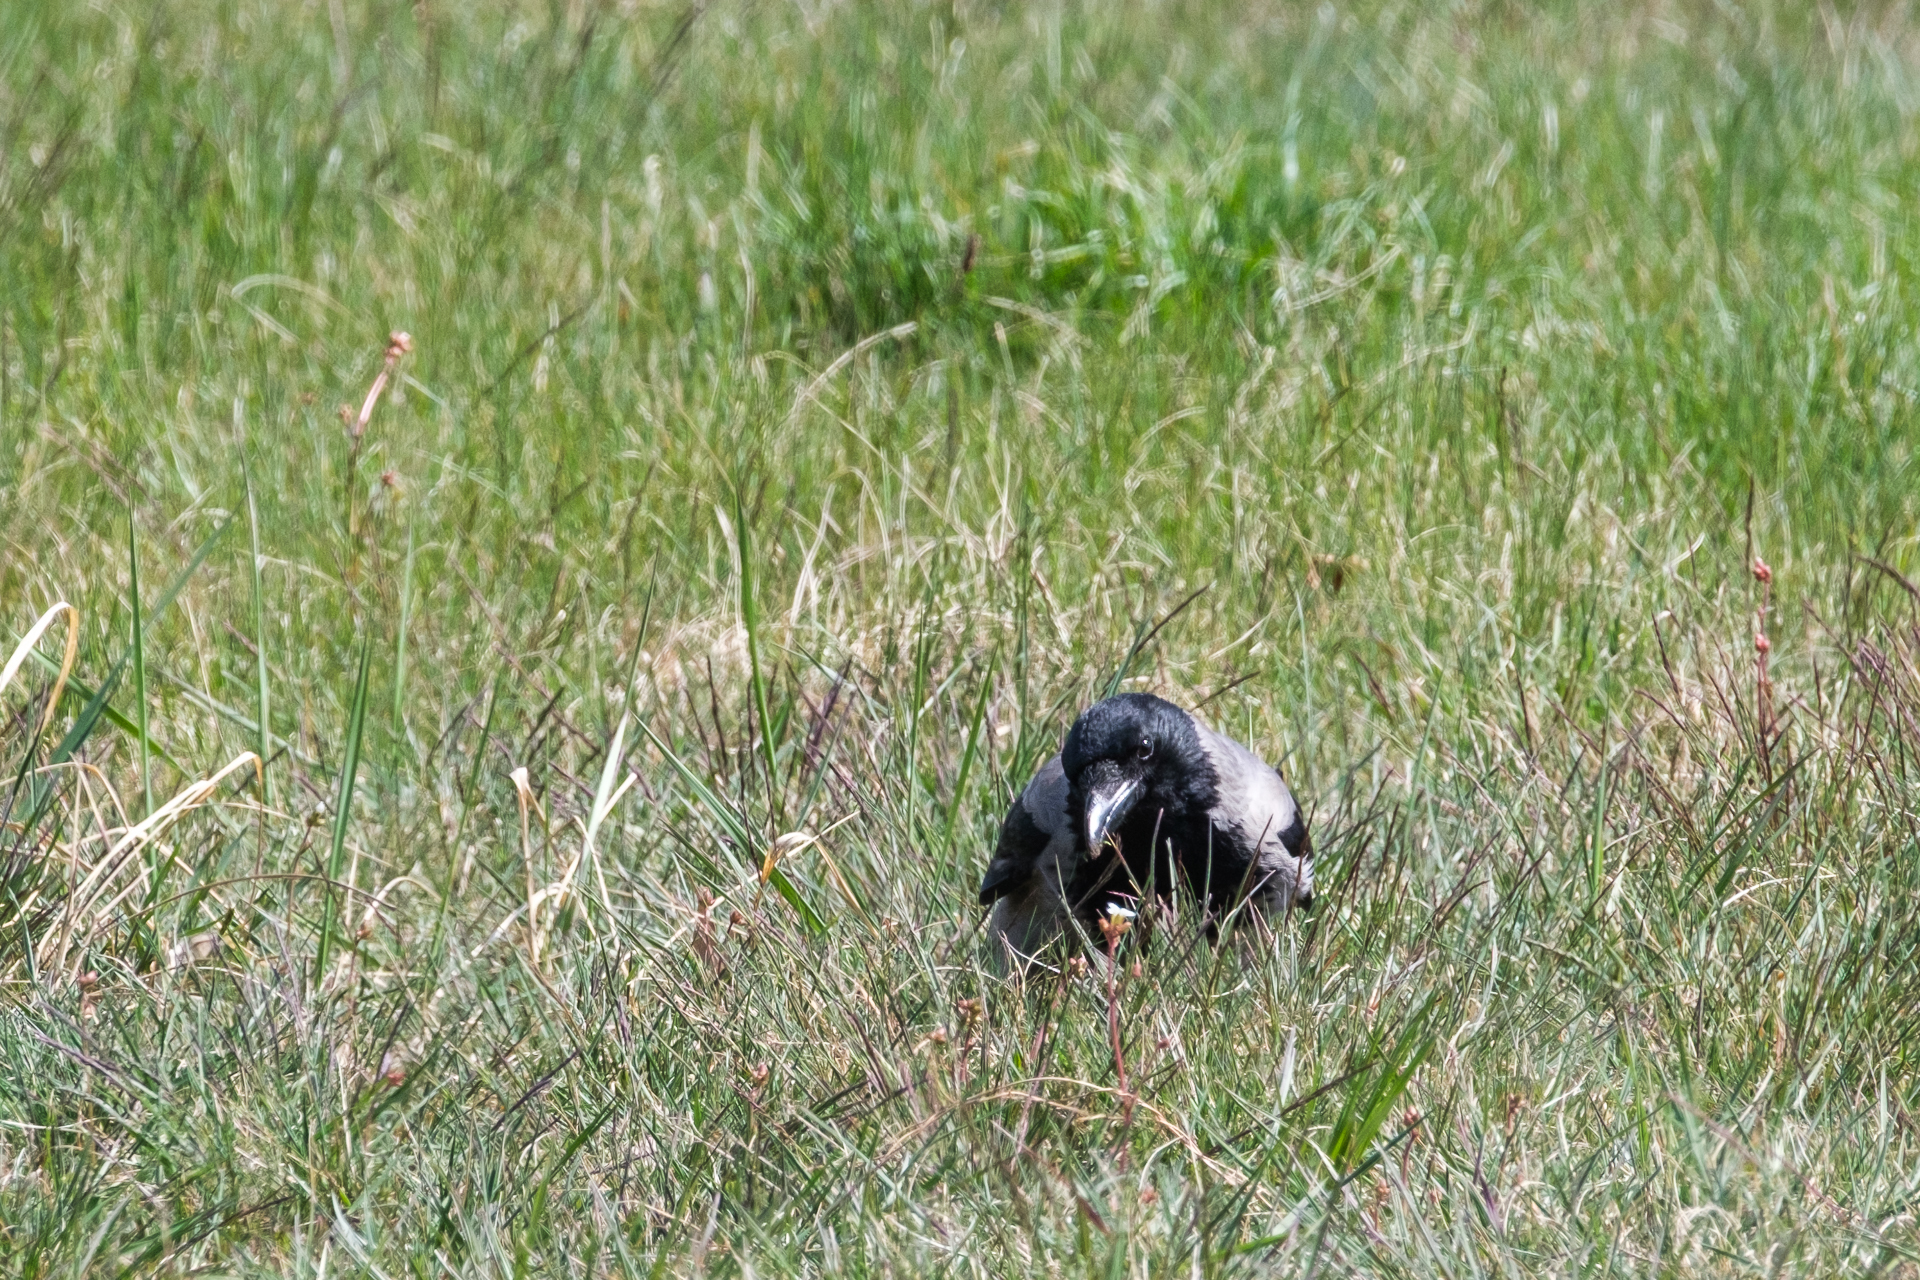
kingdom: Animalia
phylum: Chordata
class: Aves
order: Passeriformes
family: Corvidae
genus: Corvus
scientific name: Corvus cornix
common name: Hooded crow
